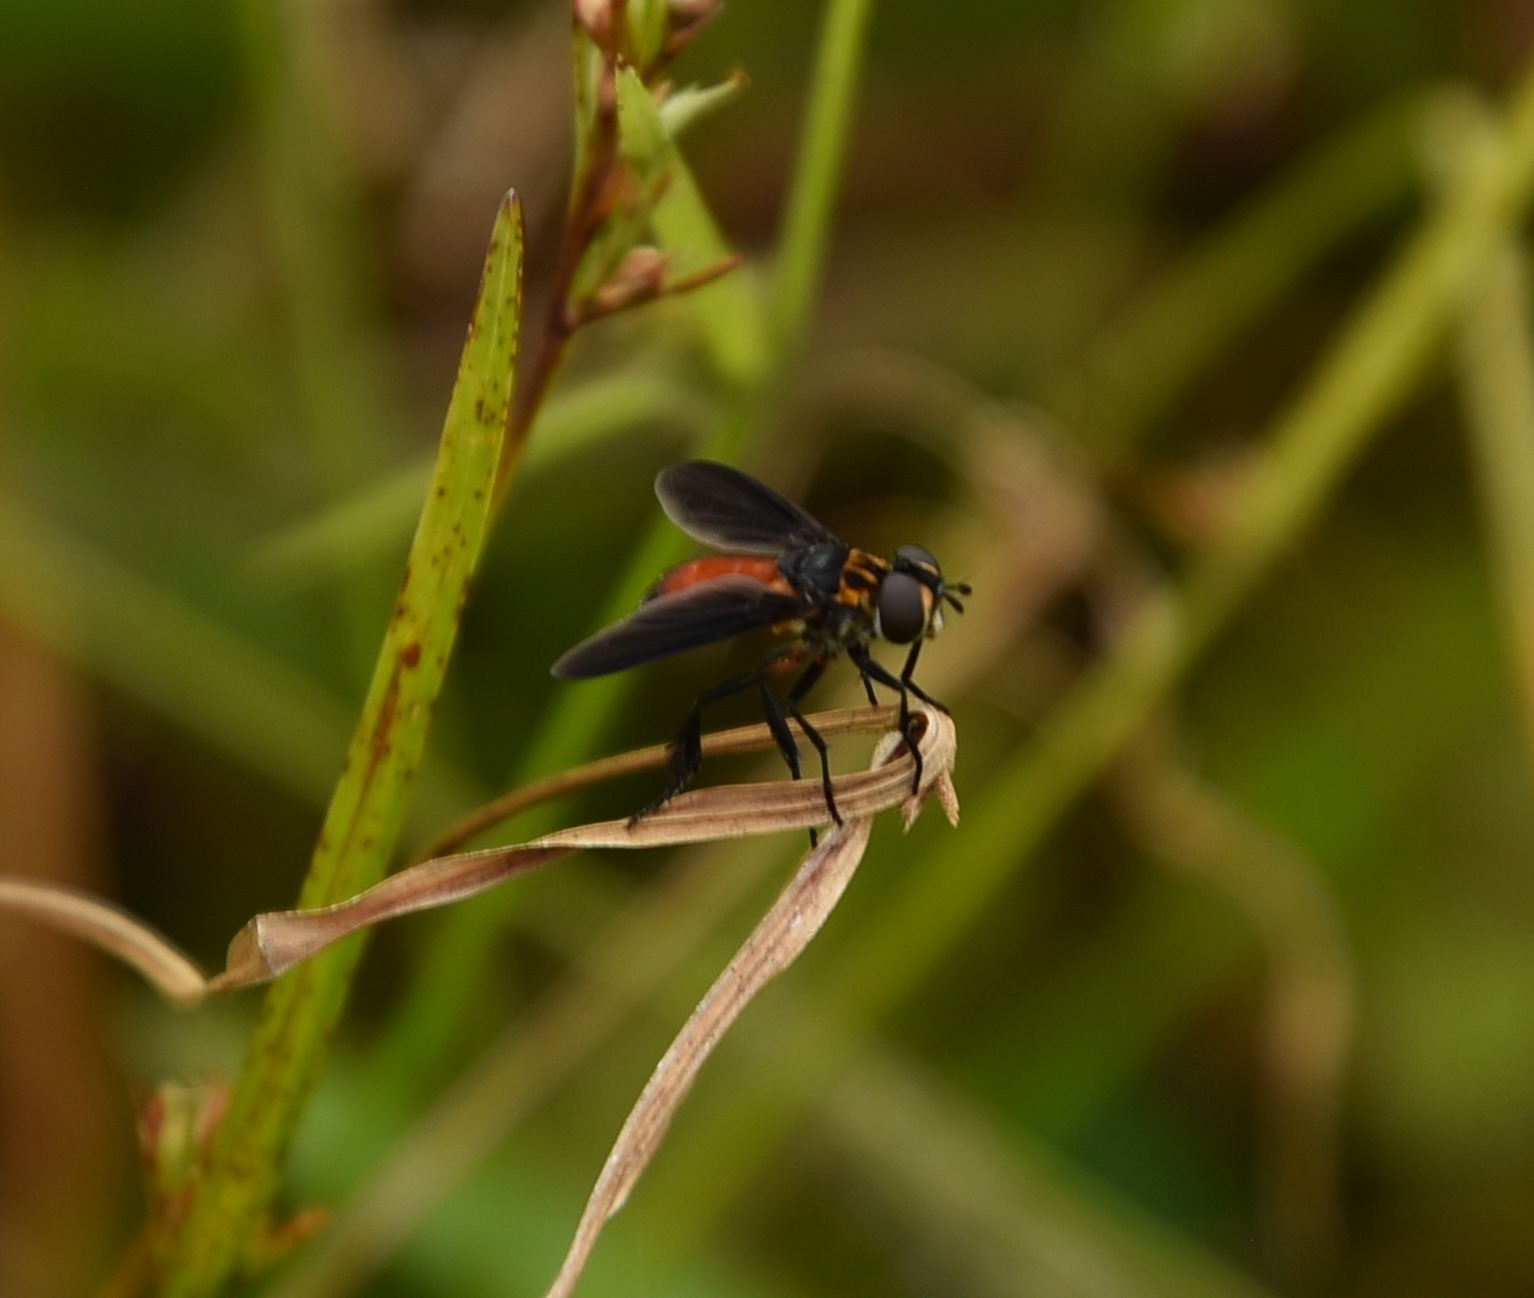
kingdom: Animalia
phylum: Arthropoda
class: Insecta
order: Diptera
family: Tachinidae
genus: Trichopoda
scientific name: Trichopoda pennipes
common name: Tachinid fly
